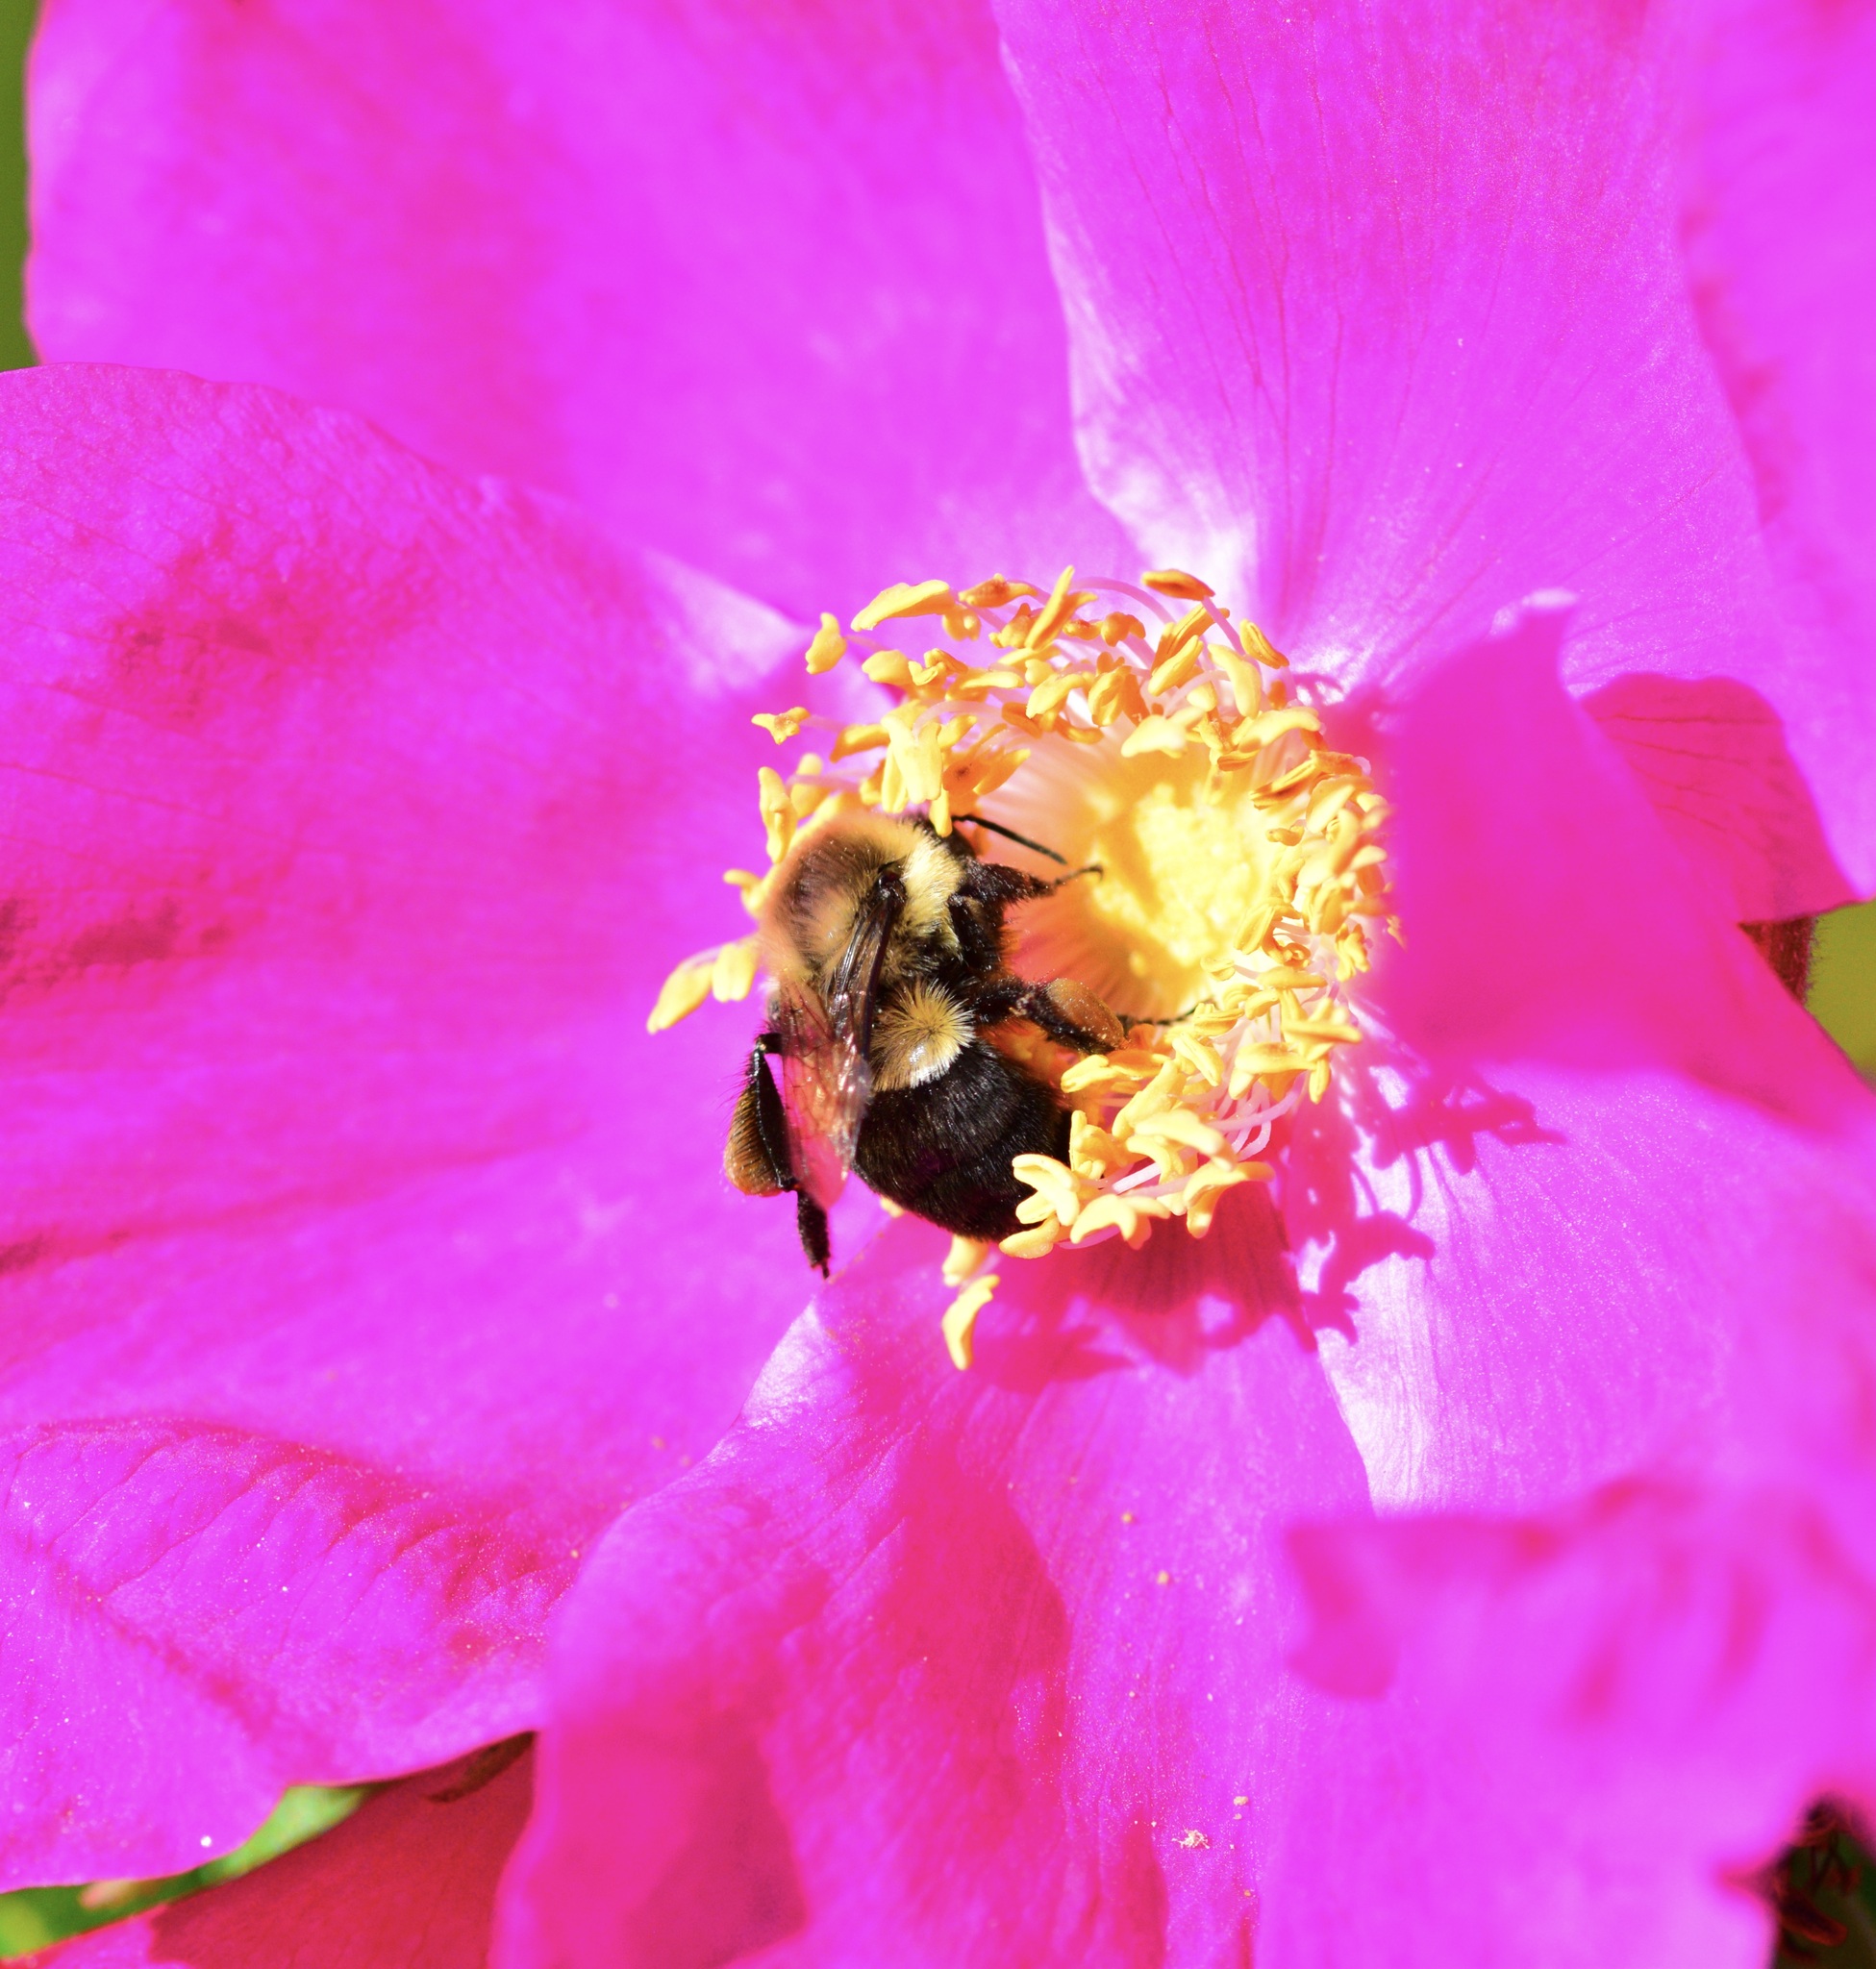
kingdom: Animalia
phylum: Arthropoda
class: Insecta
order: Hymenoptera
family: Apidae
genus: Bombus
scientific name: Bombus impatiens
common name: Common eastern bumble bee
